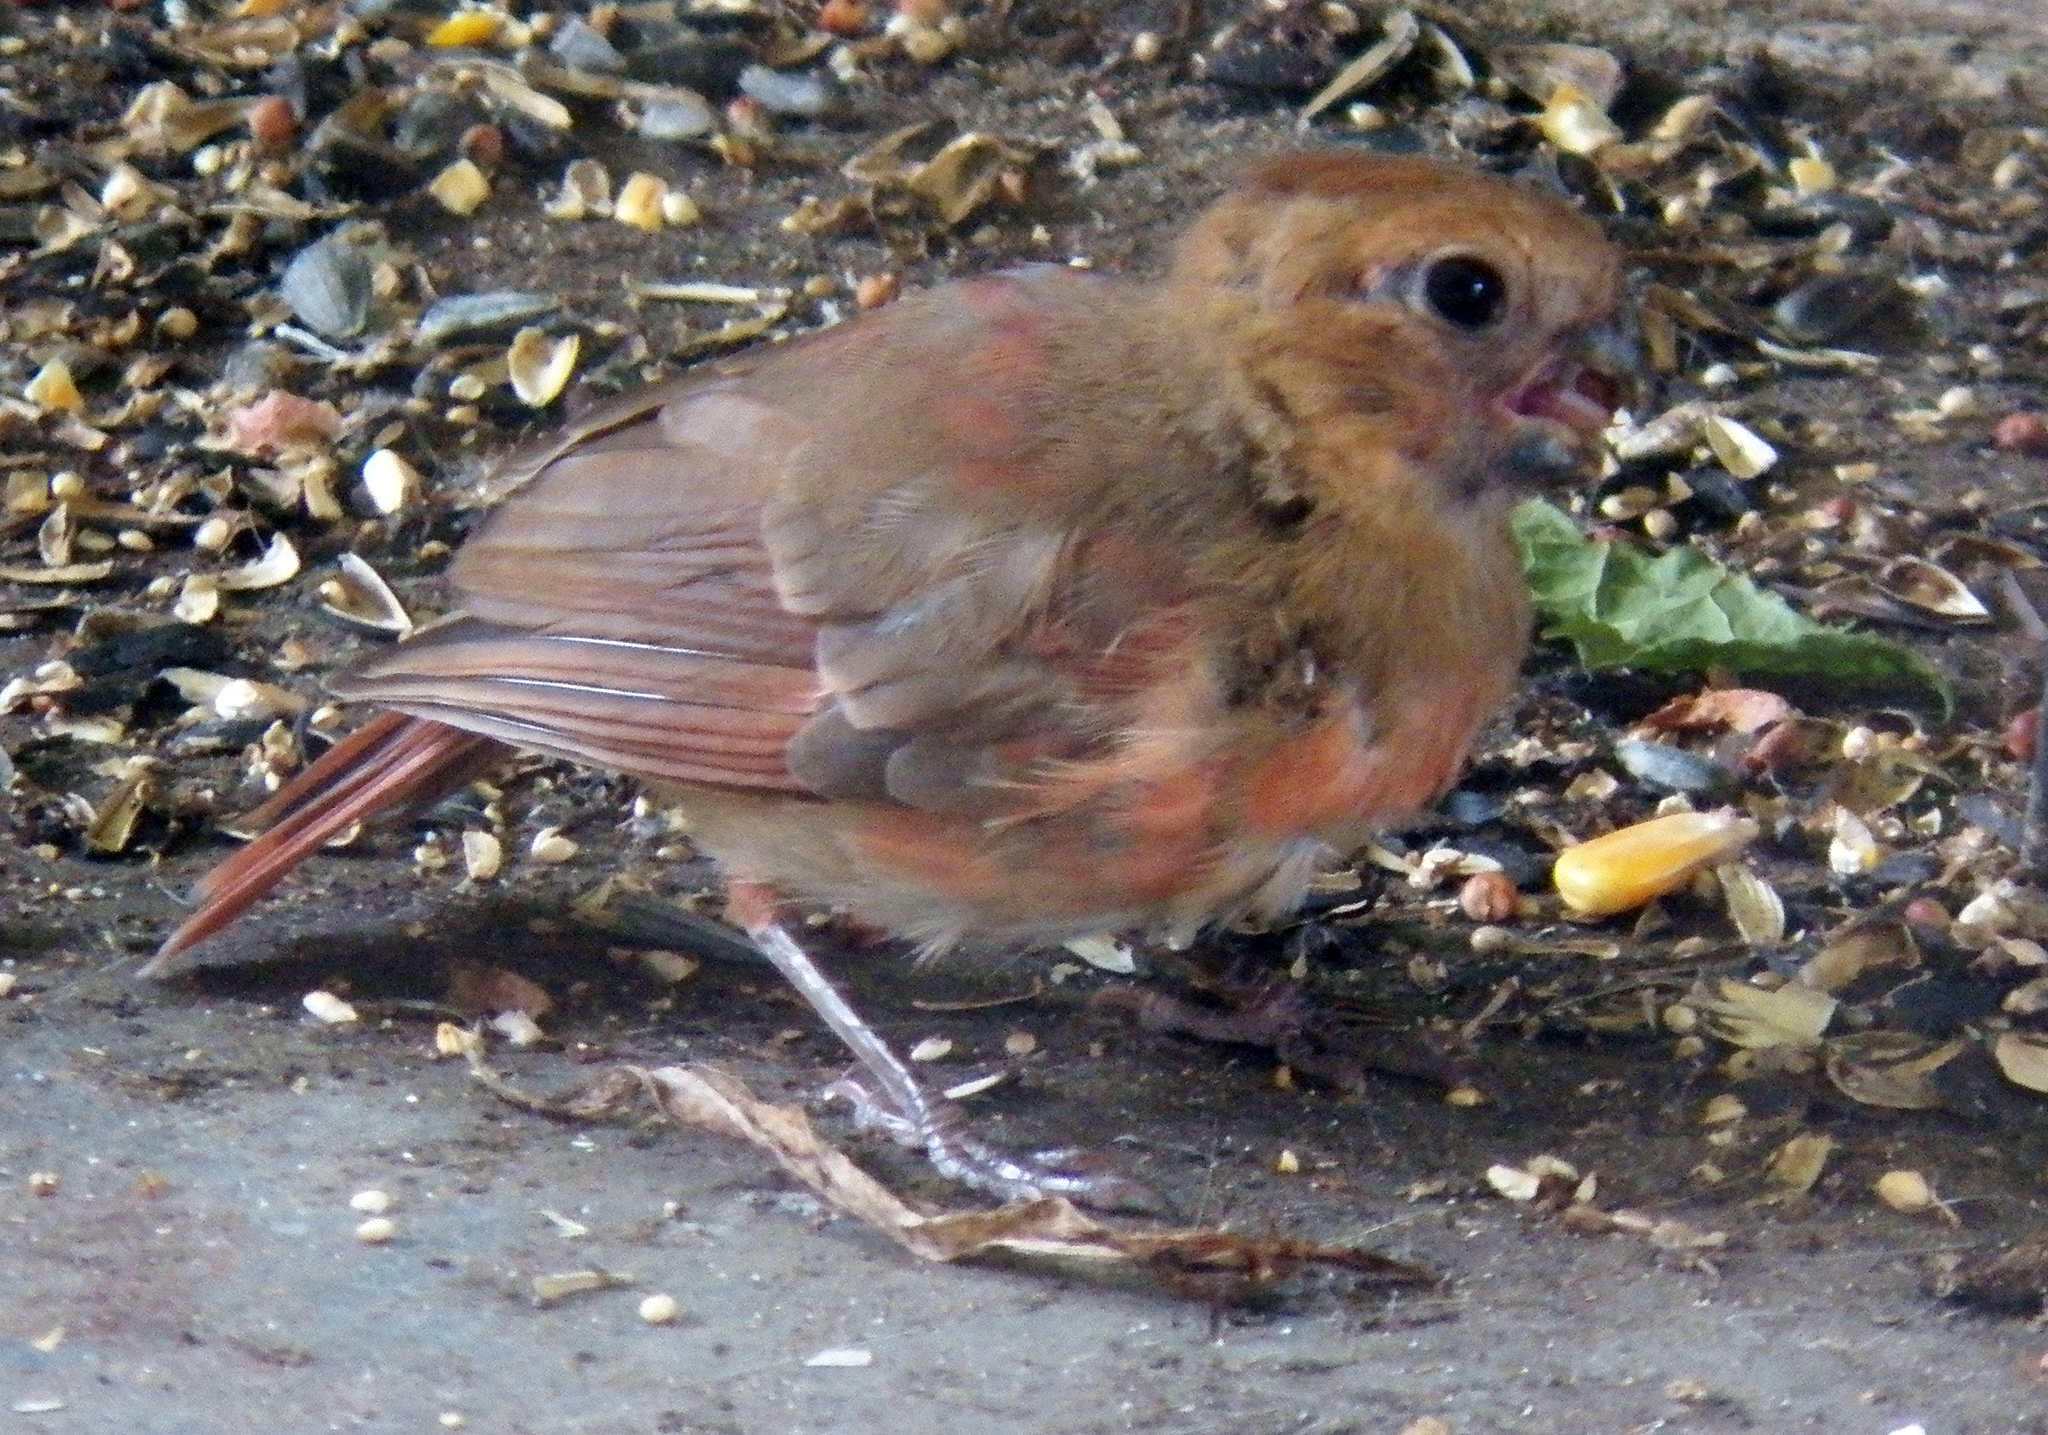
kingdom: Animalia
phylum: Chordata
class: Aves
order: Passeriformes
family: Cardinalidae
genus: Cardinalis
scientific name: Cardinalis cardinalis
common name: Northern cardinal
